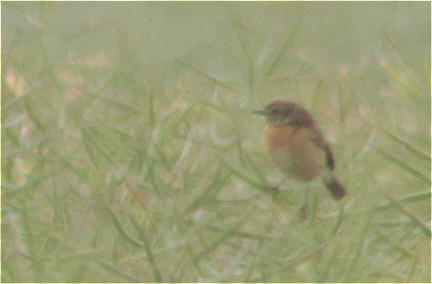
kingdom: Animalia
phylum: Chordata
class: Aves
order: Passeriformes
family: Muscicapidae
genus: Saxicola
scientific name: Saxicola rubicola
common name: European stonechat
